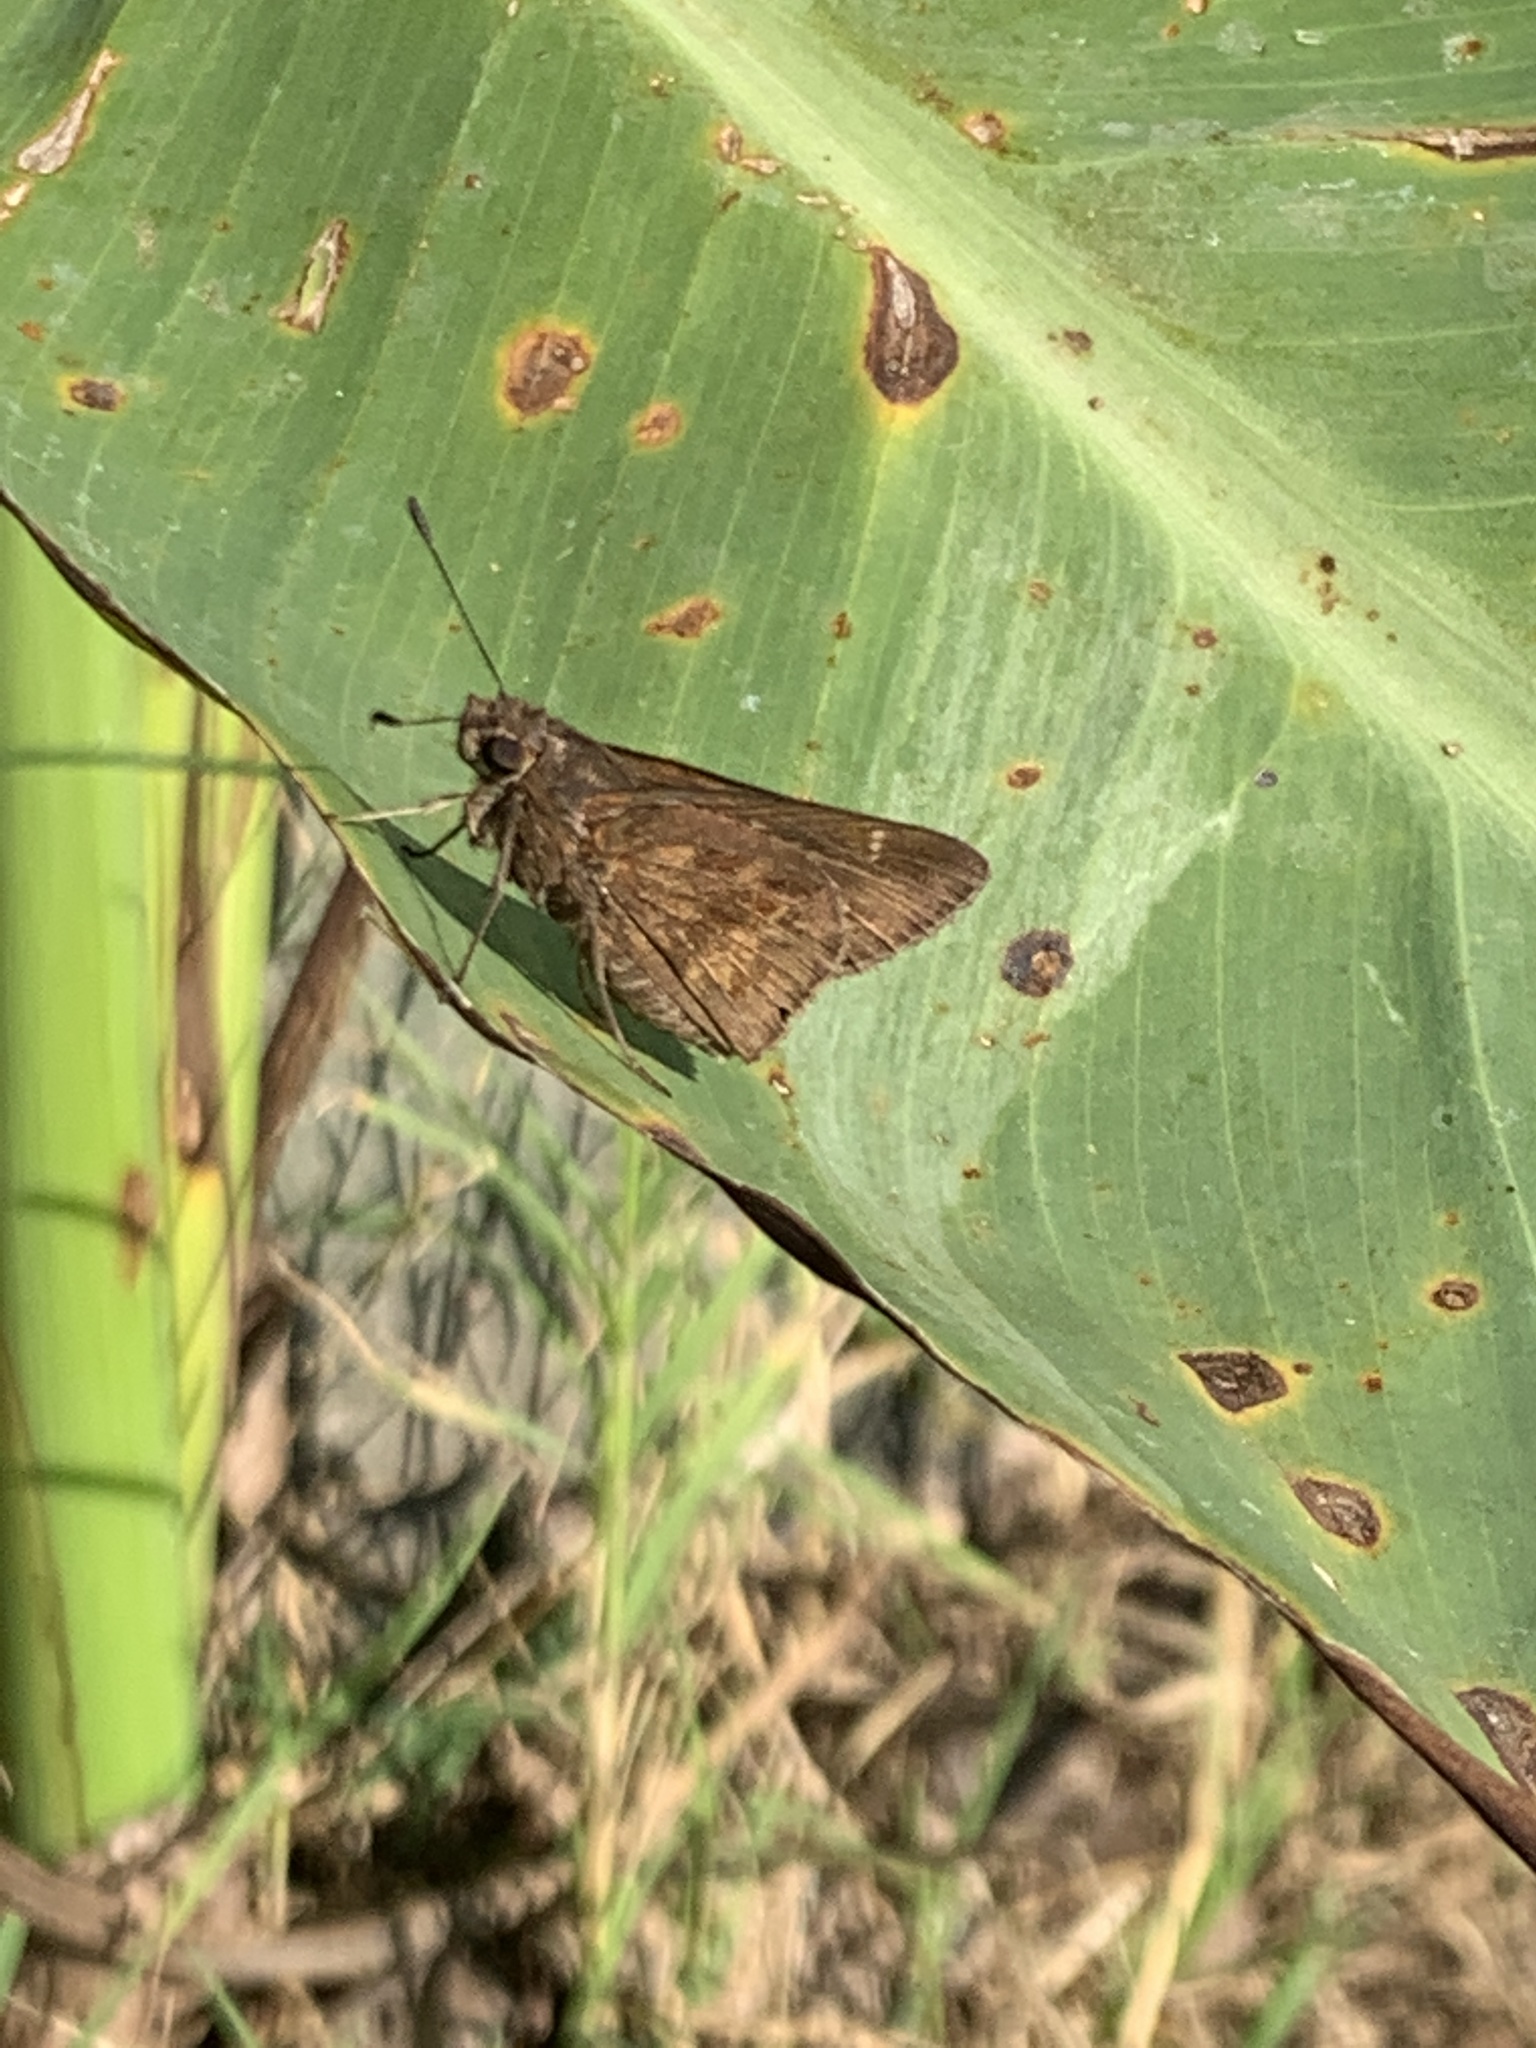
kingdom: Animalia
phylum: Arthropoda
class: Insecta
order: Lepidoptera
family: Hesperiidae
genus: Quinta
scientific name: Quinta cannae
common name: Canna skipper
